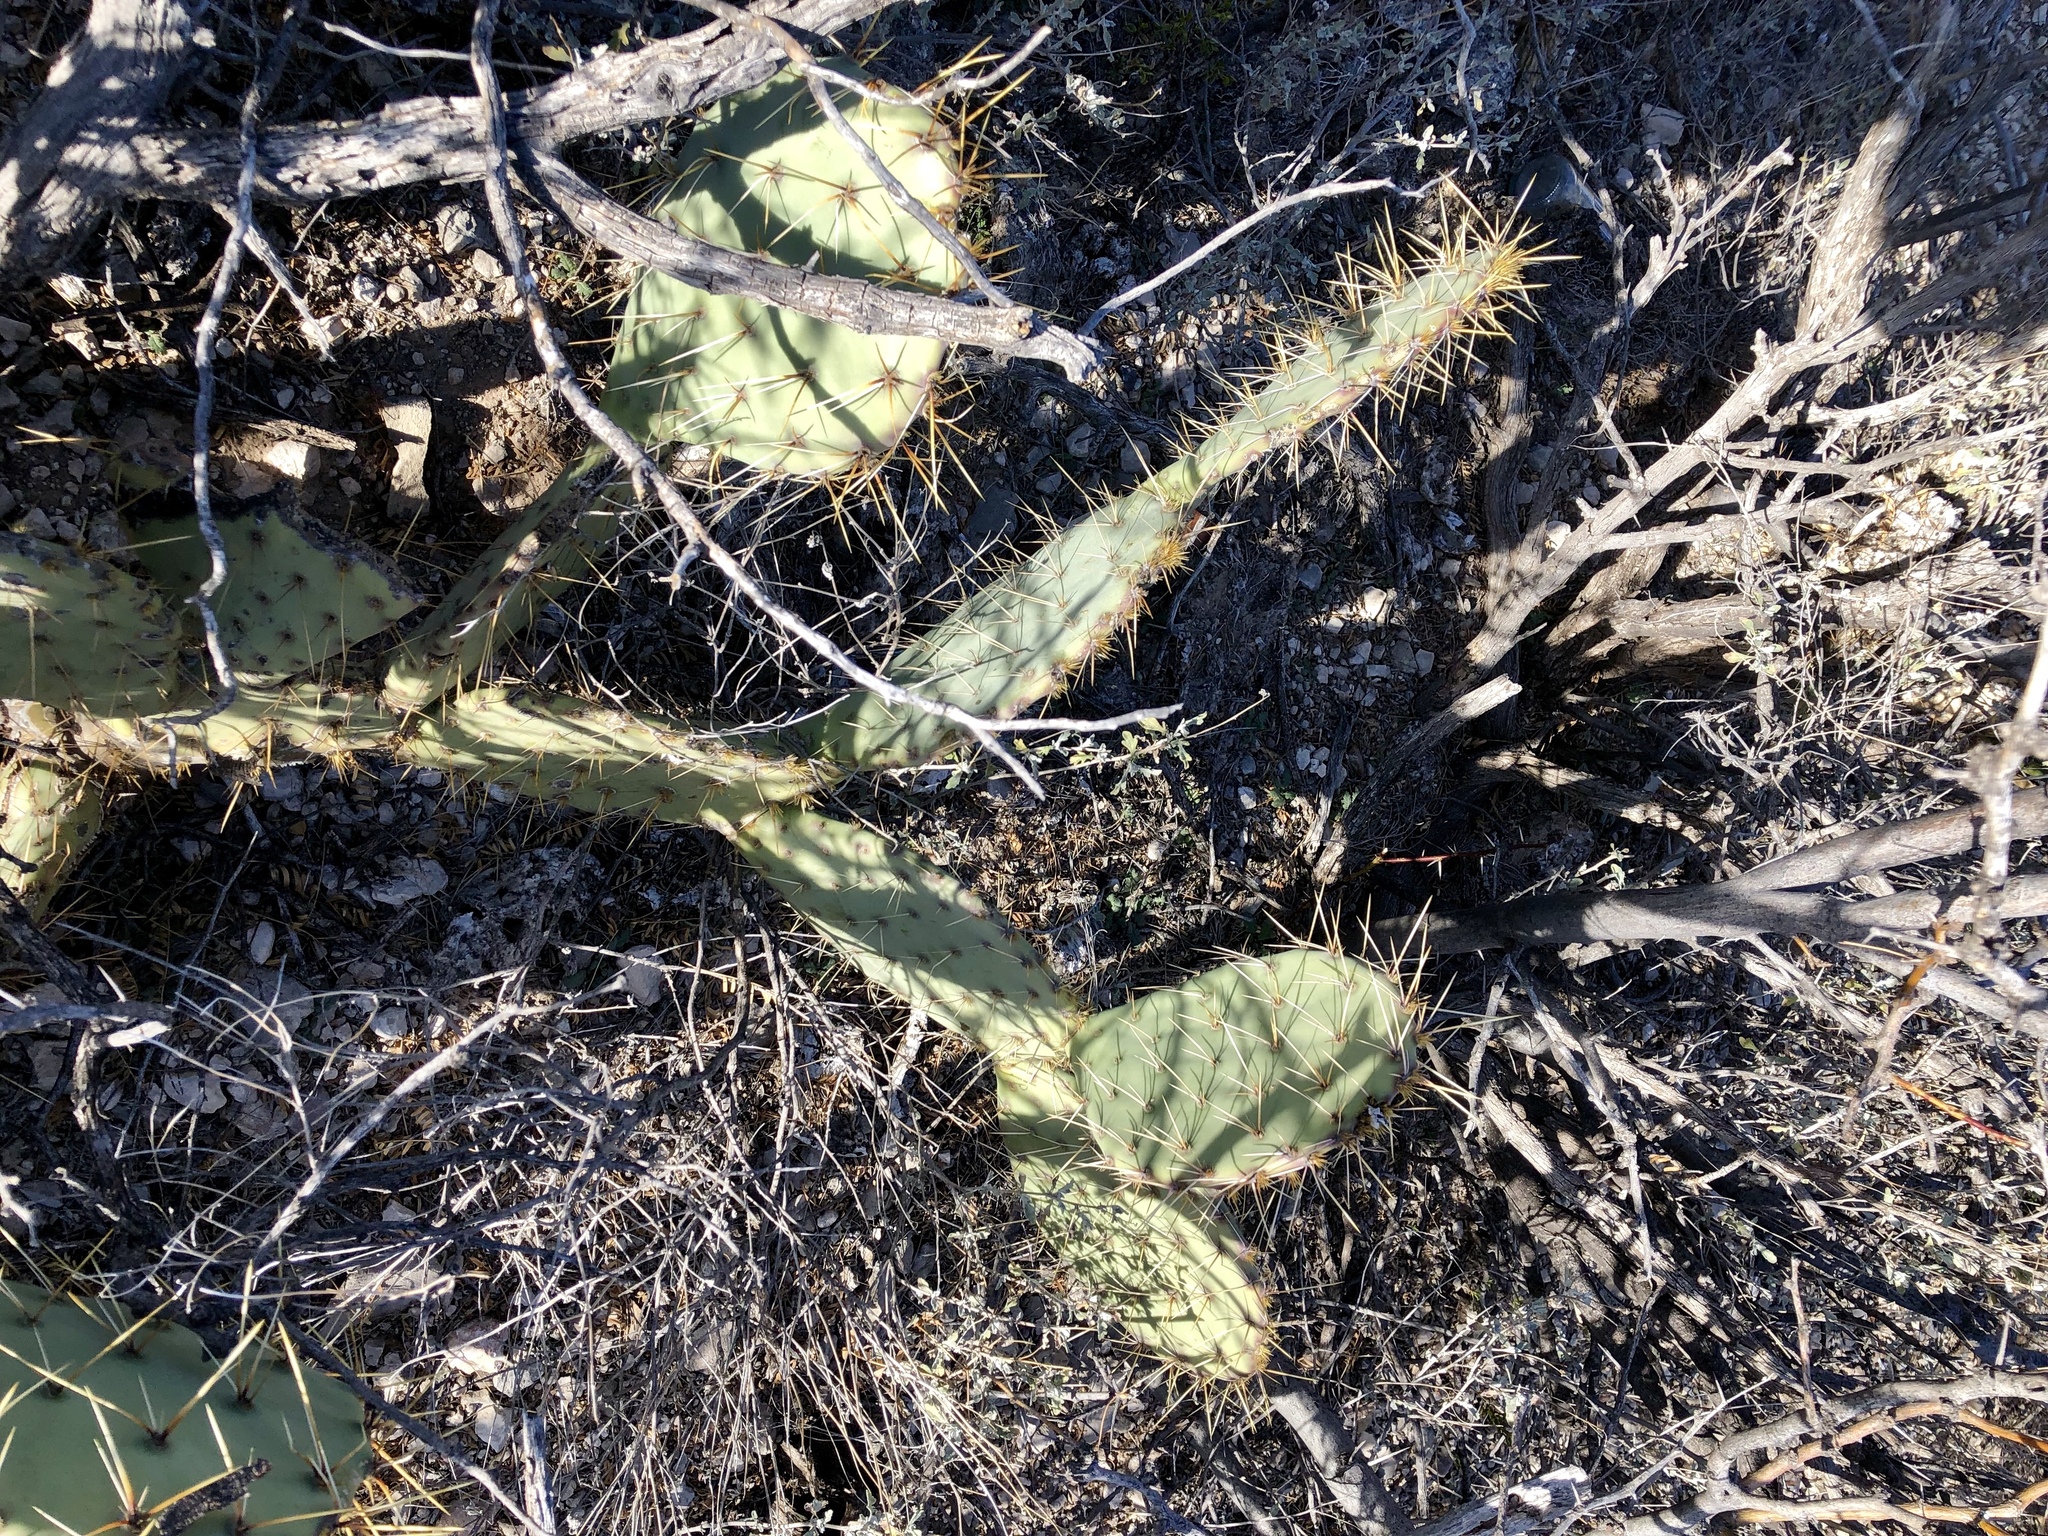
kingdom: Plantae
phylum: Tracheophyta
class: Magnoliopsida
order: Caryophyllales
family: Cactaceae
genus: Opuntia
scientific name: Opuntia engelmannii
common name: Cactus-apple
